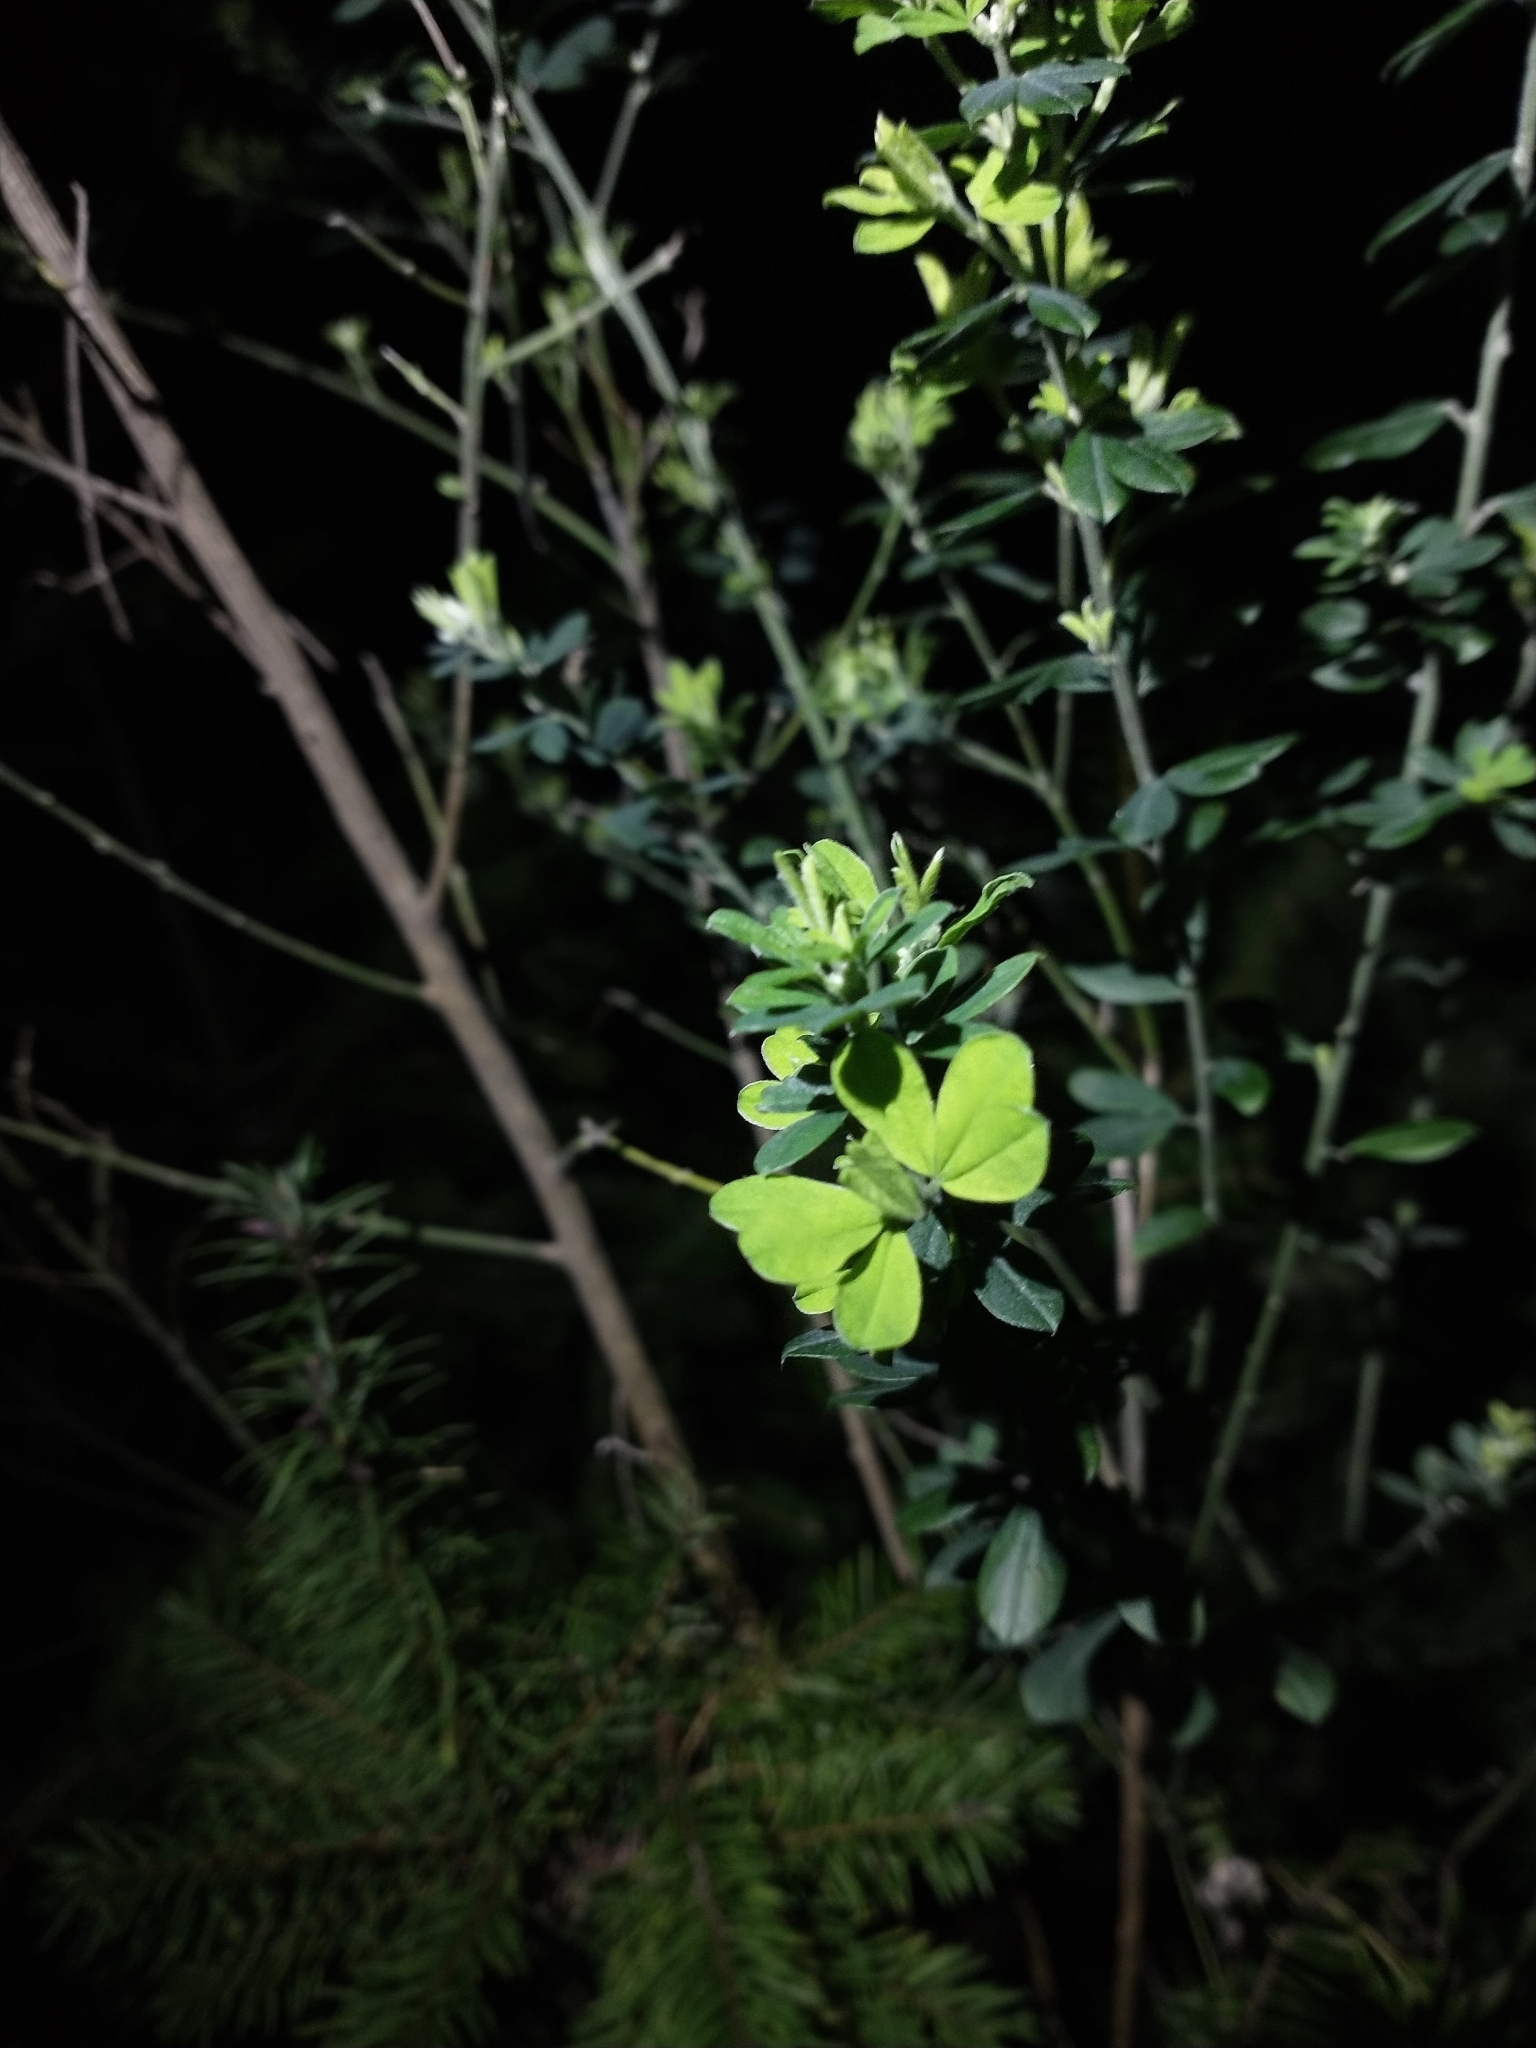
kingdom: Plantae
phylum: Tracheophyta
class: Magnoliopsida
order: Fabales
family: Fabaceae
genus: Genista
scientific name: Genista monspessulana
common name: Montpellier broom
